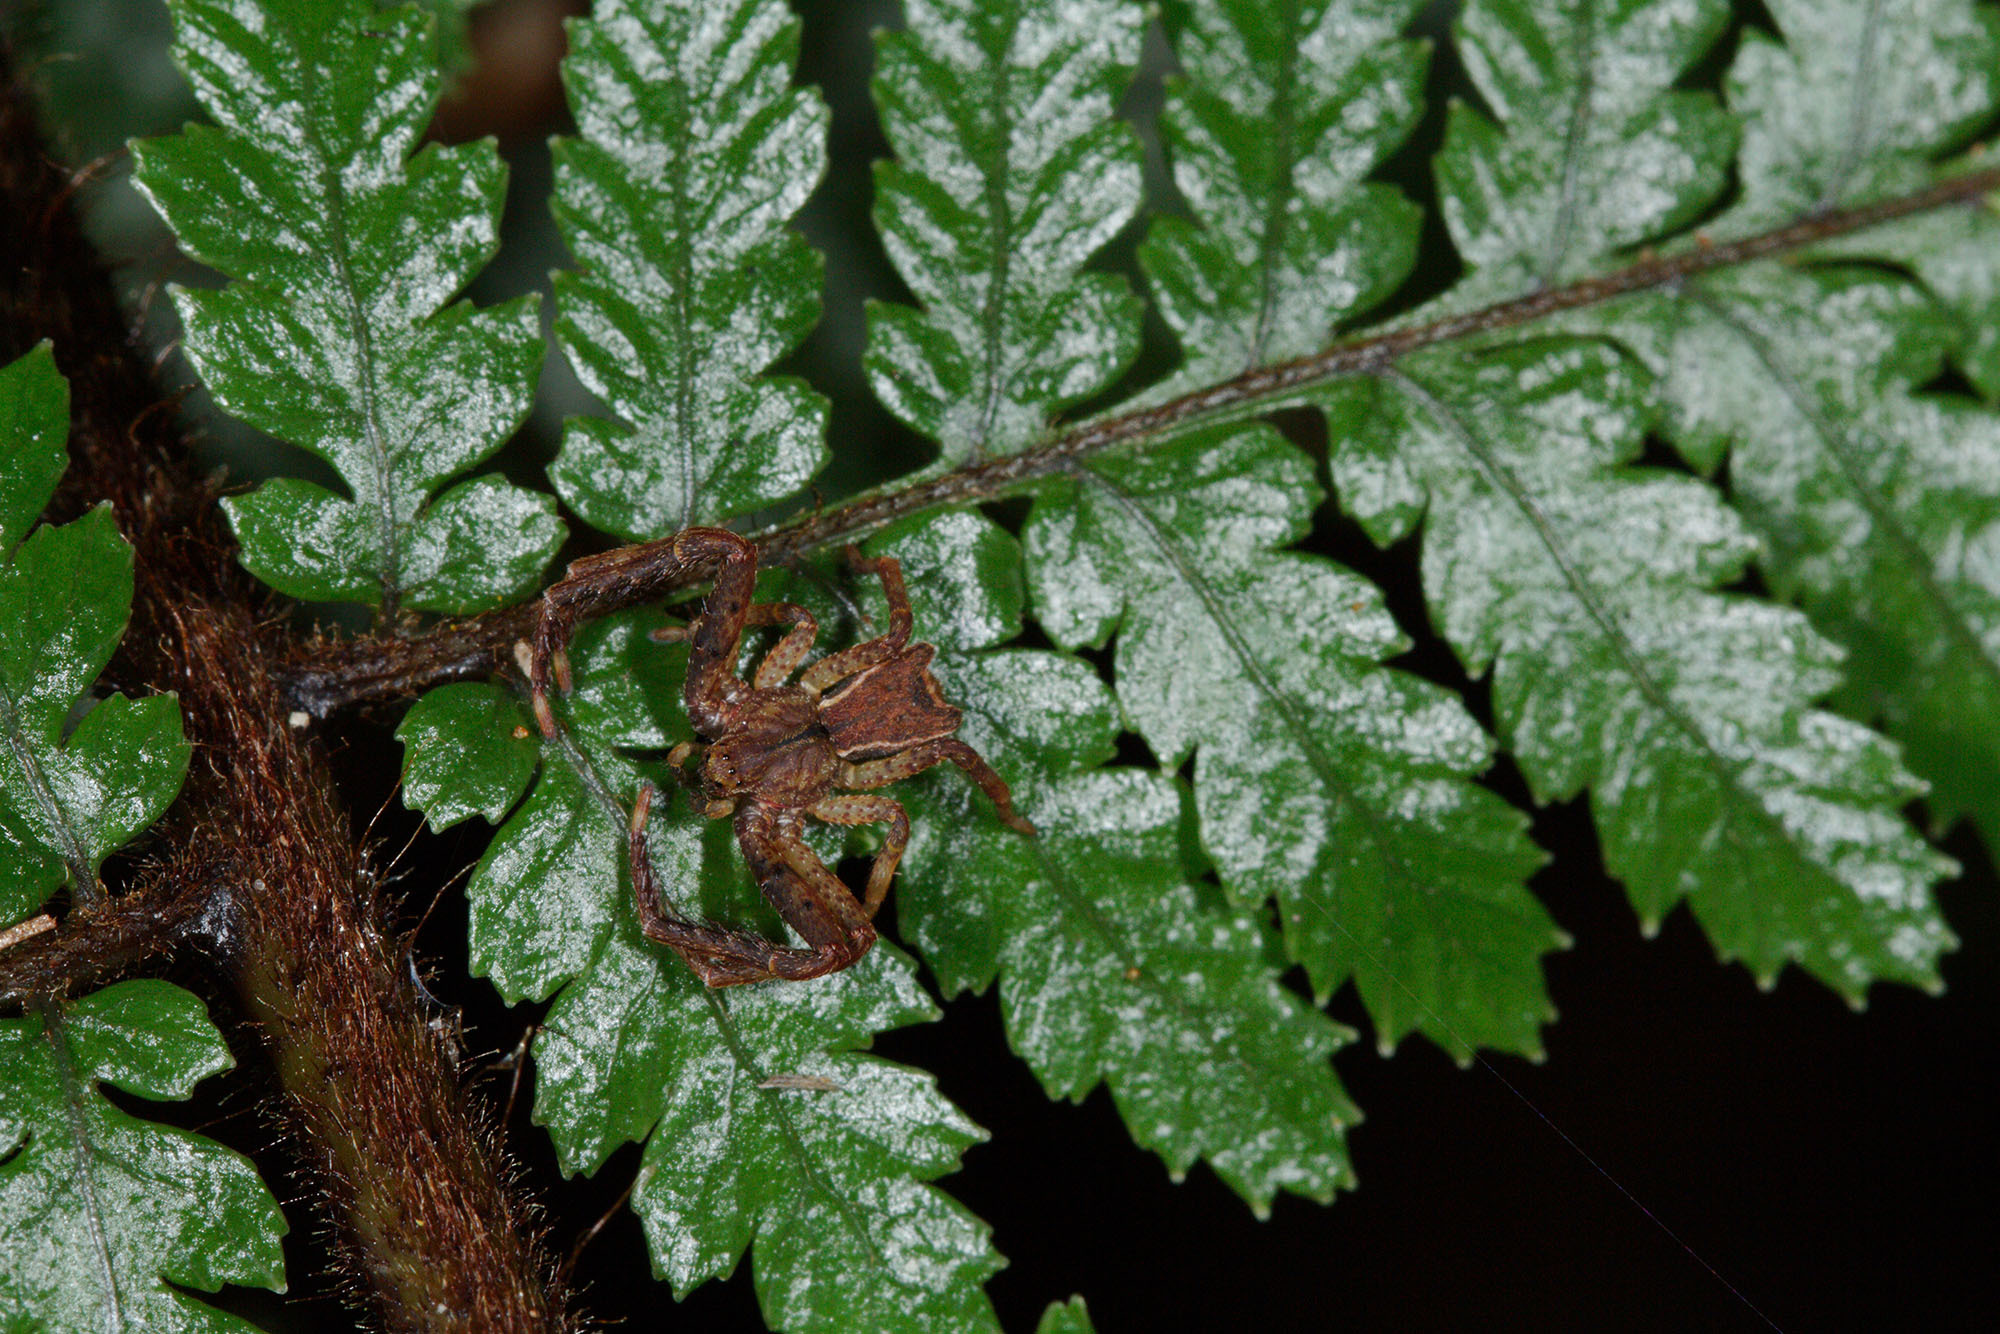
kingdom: Animalia
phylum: Arthropoda
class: Arachnida
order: Araneae
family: Thomisidae
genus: Sidymella
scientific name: Sidymella angularis
